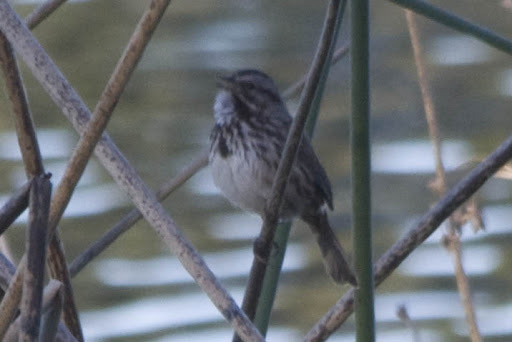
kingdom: Animalia
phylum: Chordata
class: Aves
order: Passeriformes
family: Passerellidae
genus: Melospiza
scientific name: Melospiza melodia
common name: Song sparrow
